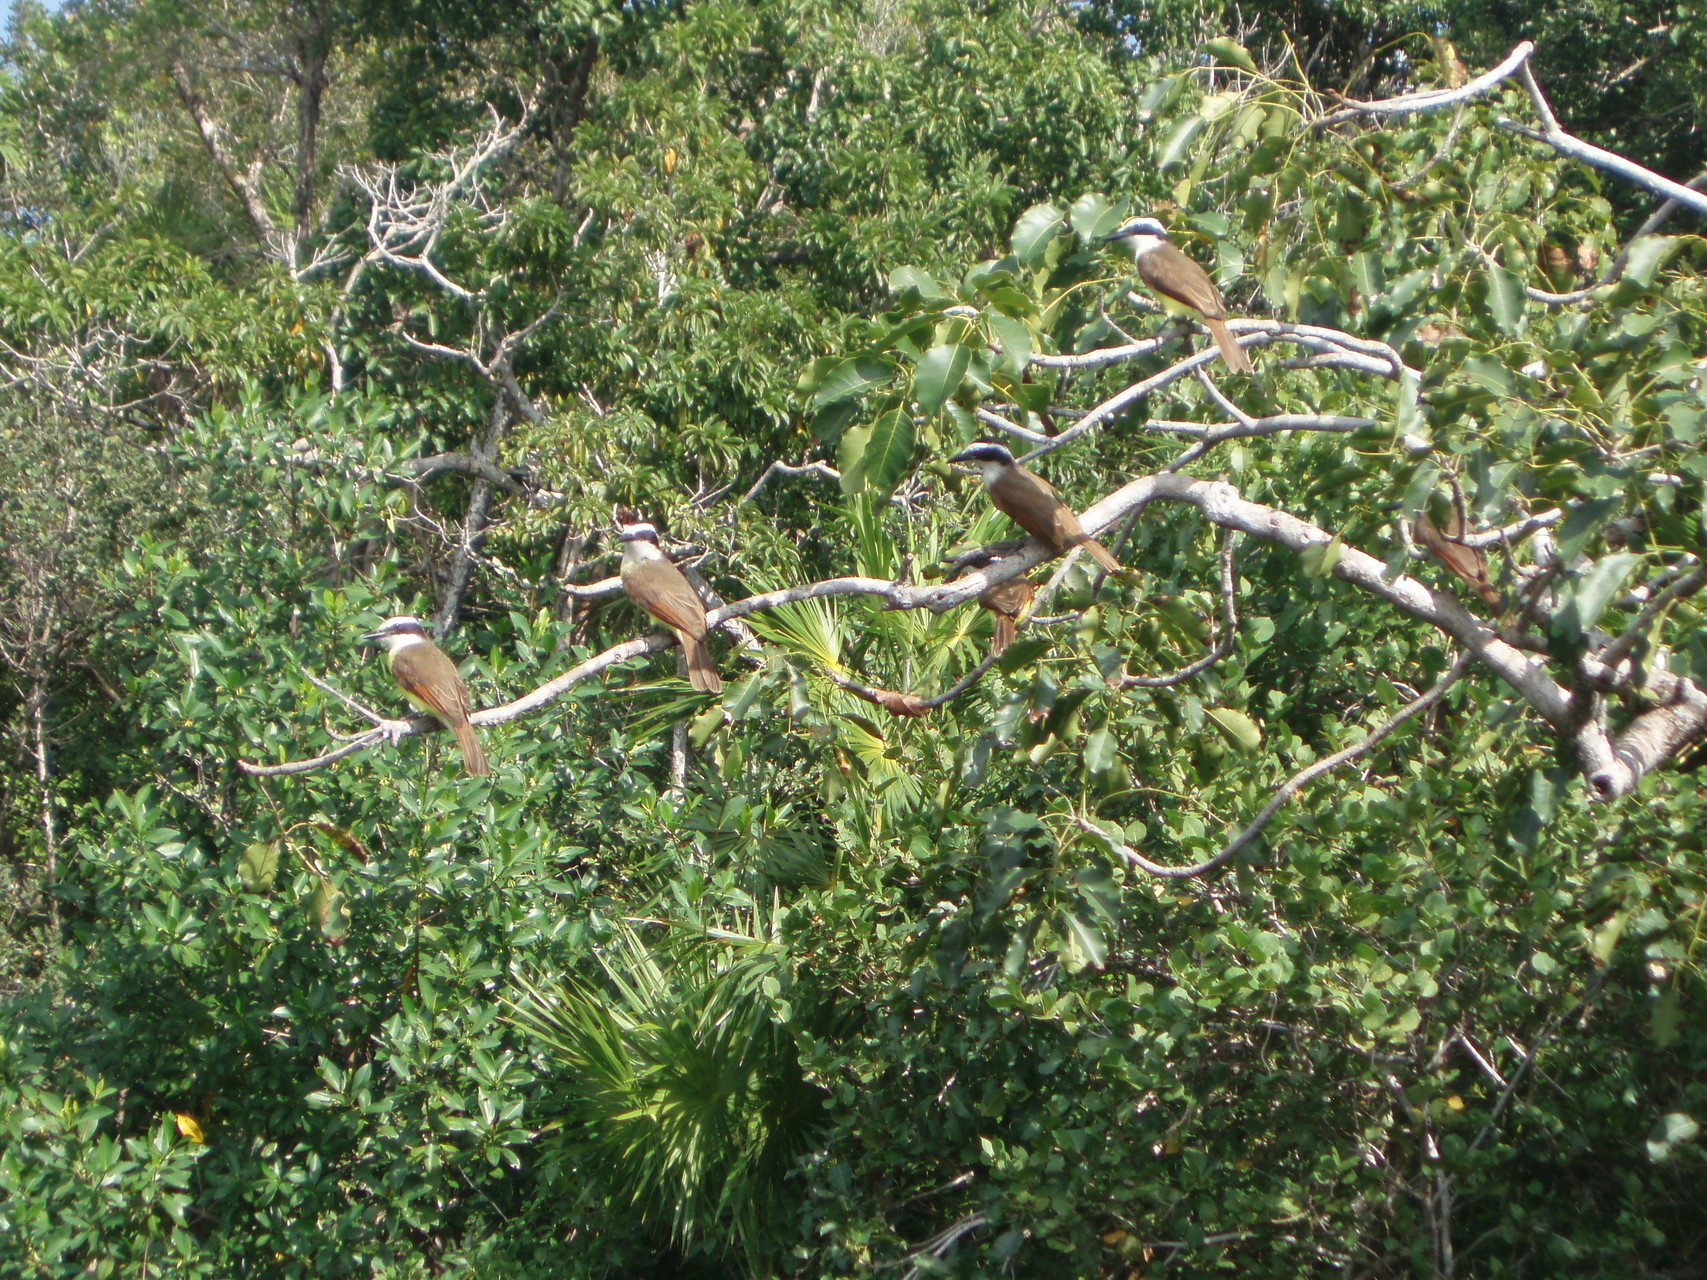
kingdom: Animalia
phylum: Chordata
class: Aves
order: Passeriformes
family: Tyrannidae
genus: Pitangus
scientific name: Pitangus sulphuratus
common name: Great kiskadee
